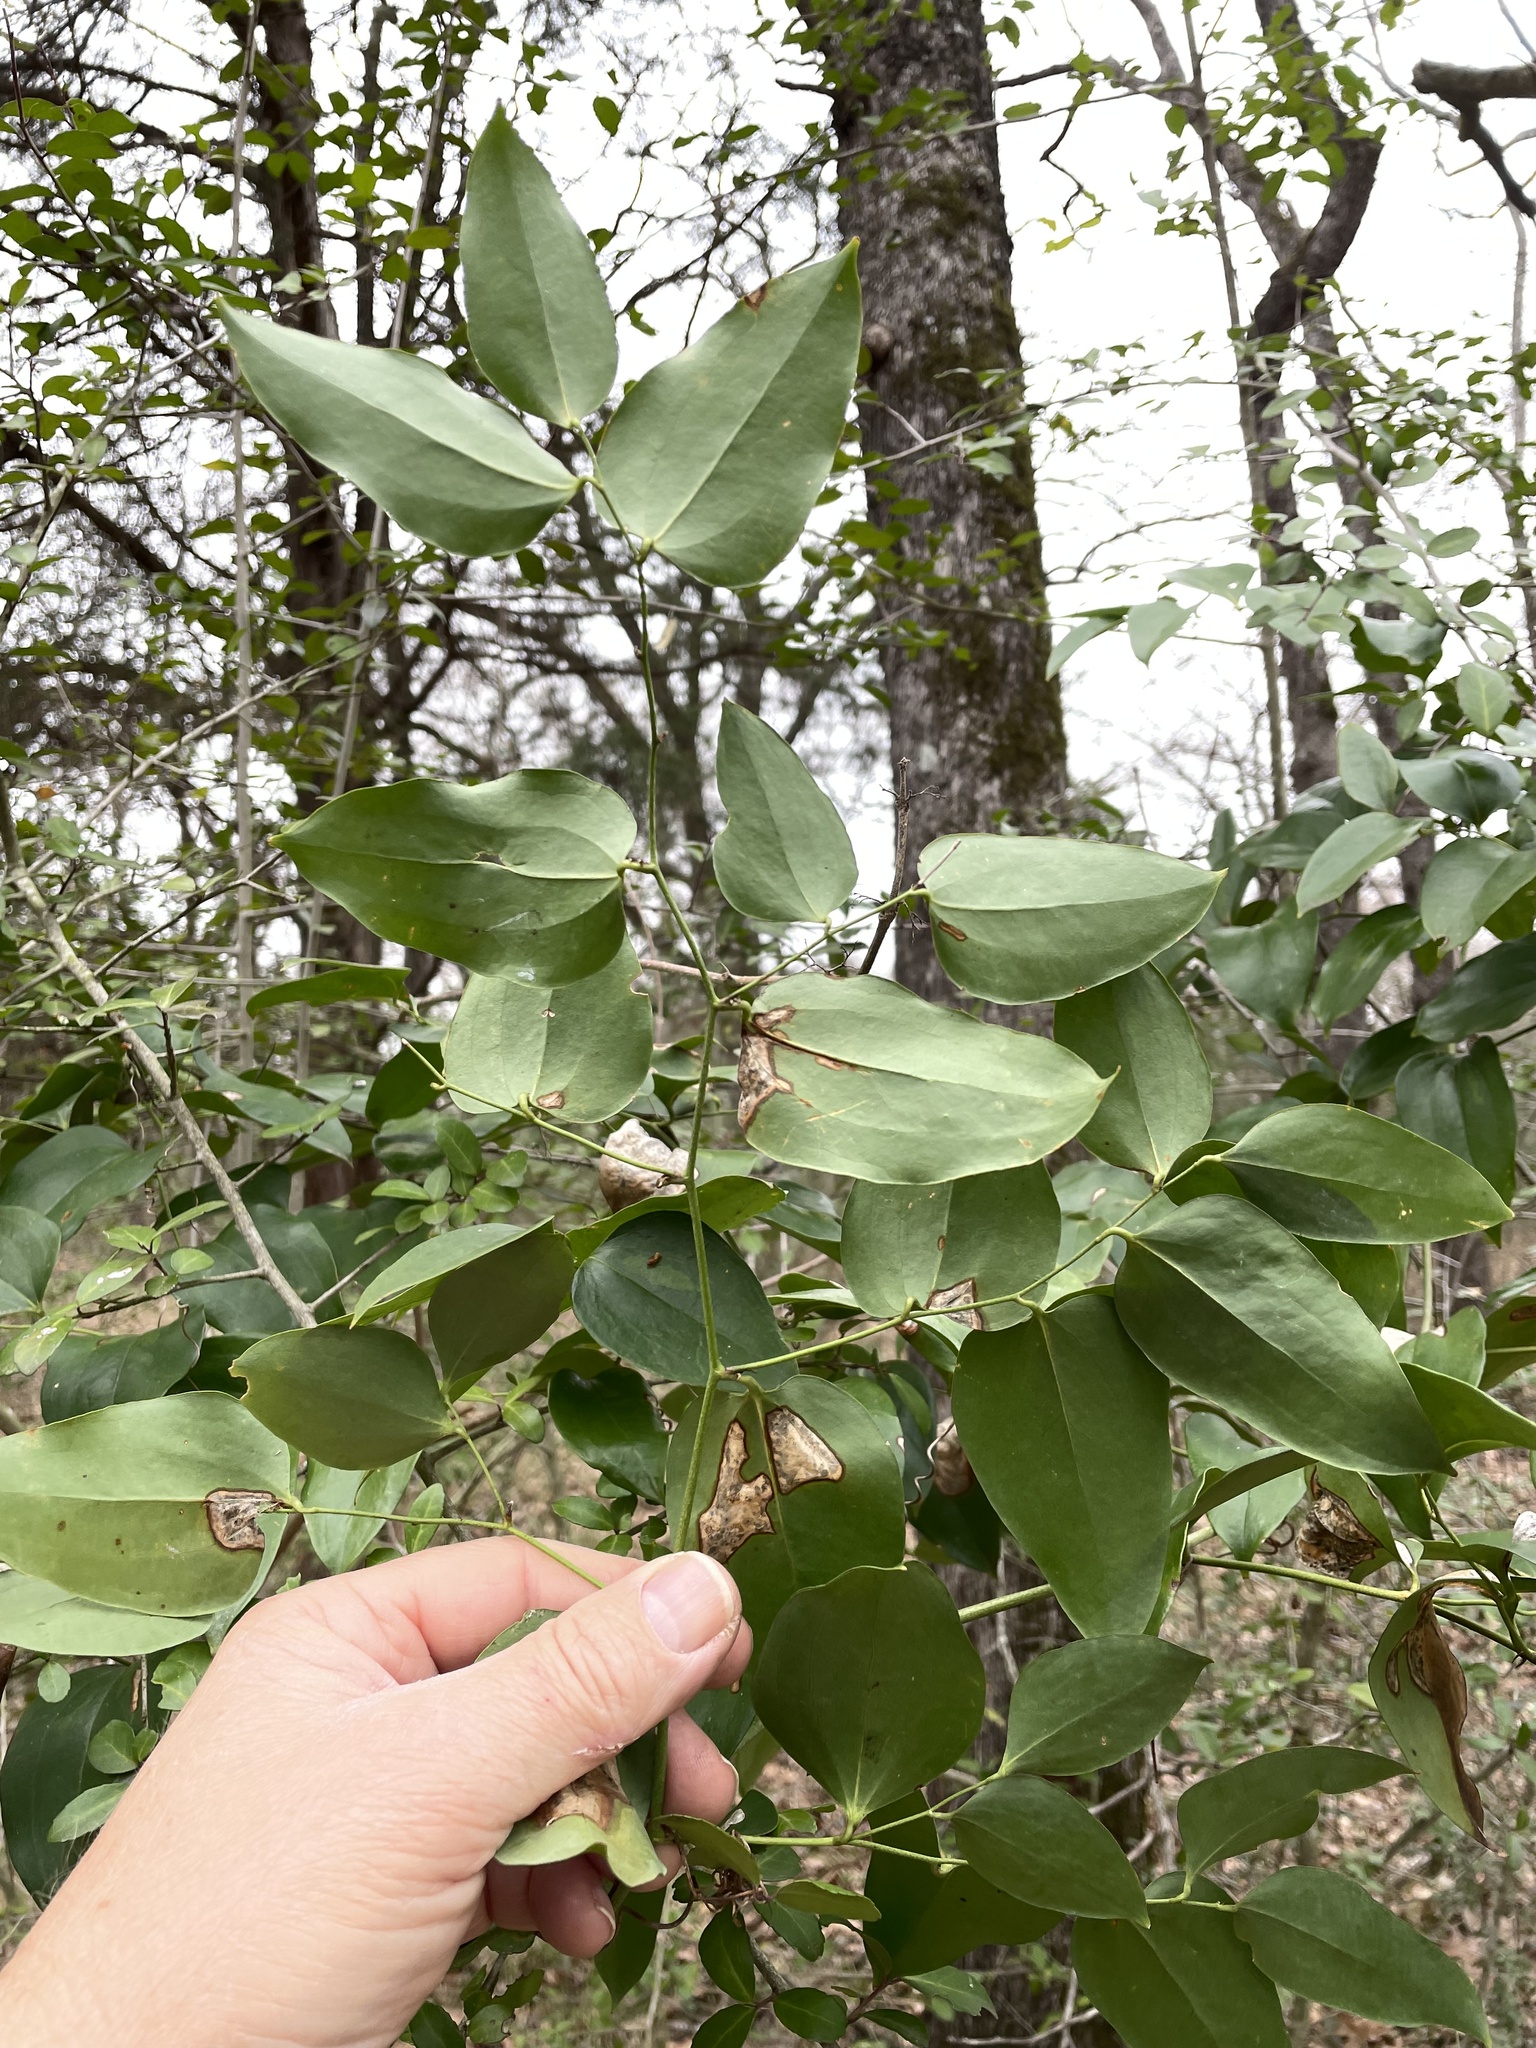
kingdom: Plantae
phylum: Tracheophyta
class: Liliopsida
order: Liliales
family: Smilacaceae
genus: Smilax
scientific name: Smilax maritima
